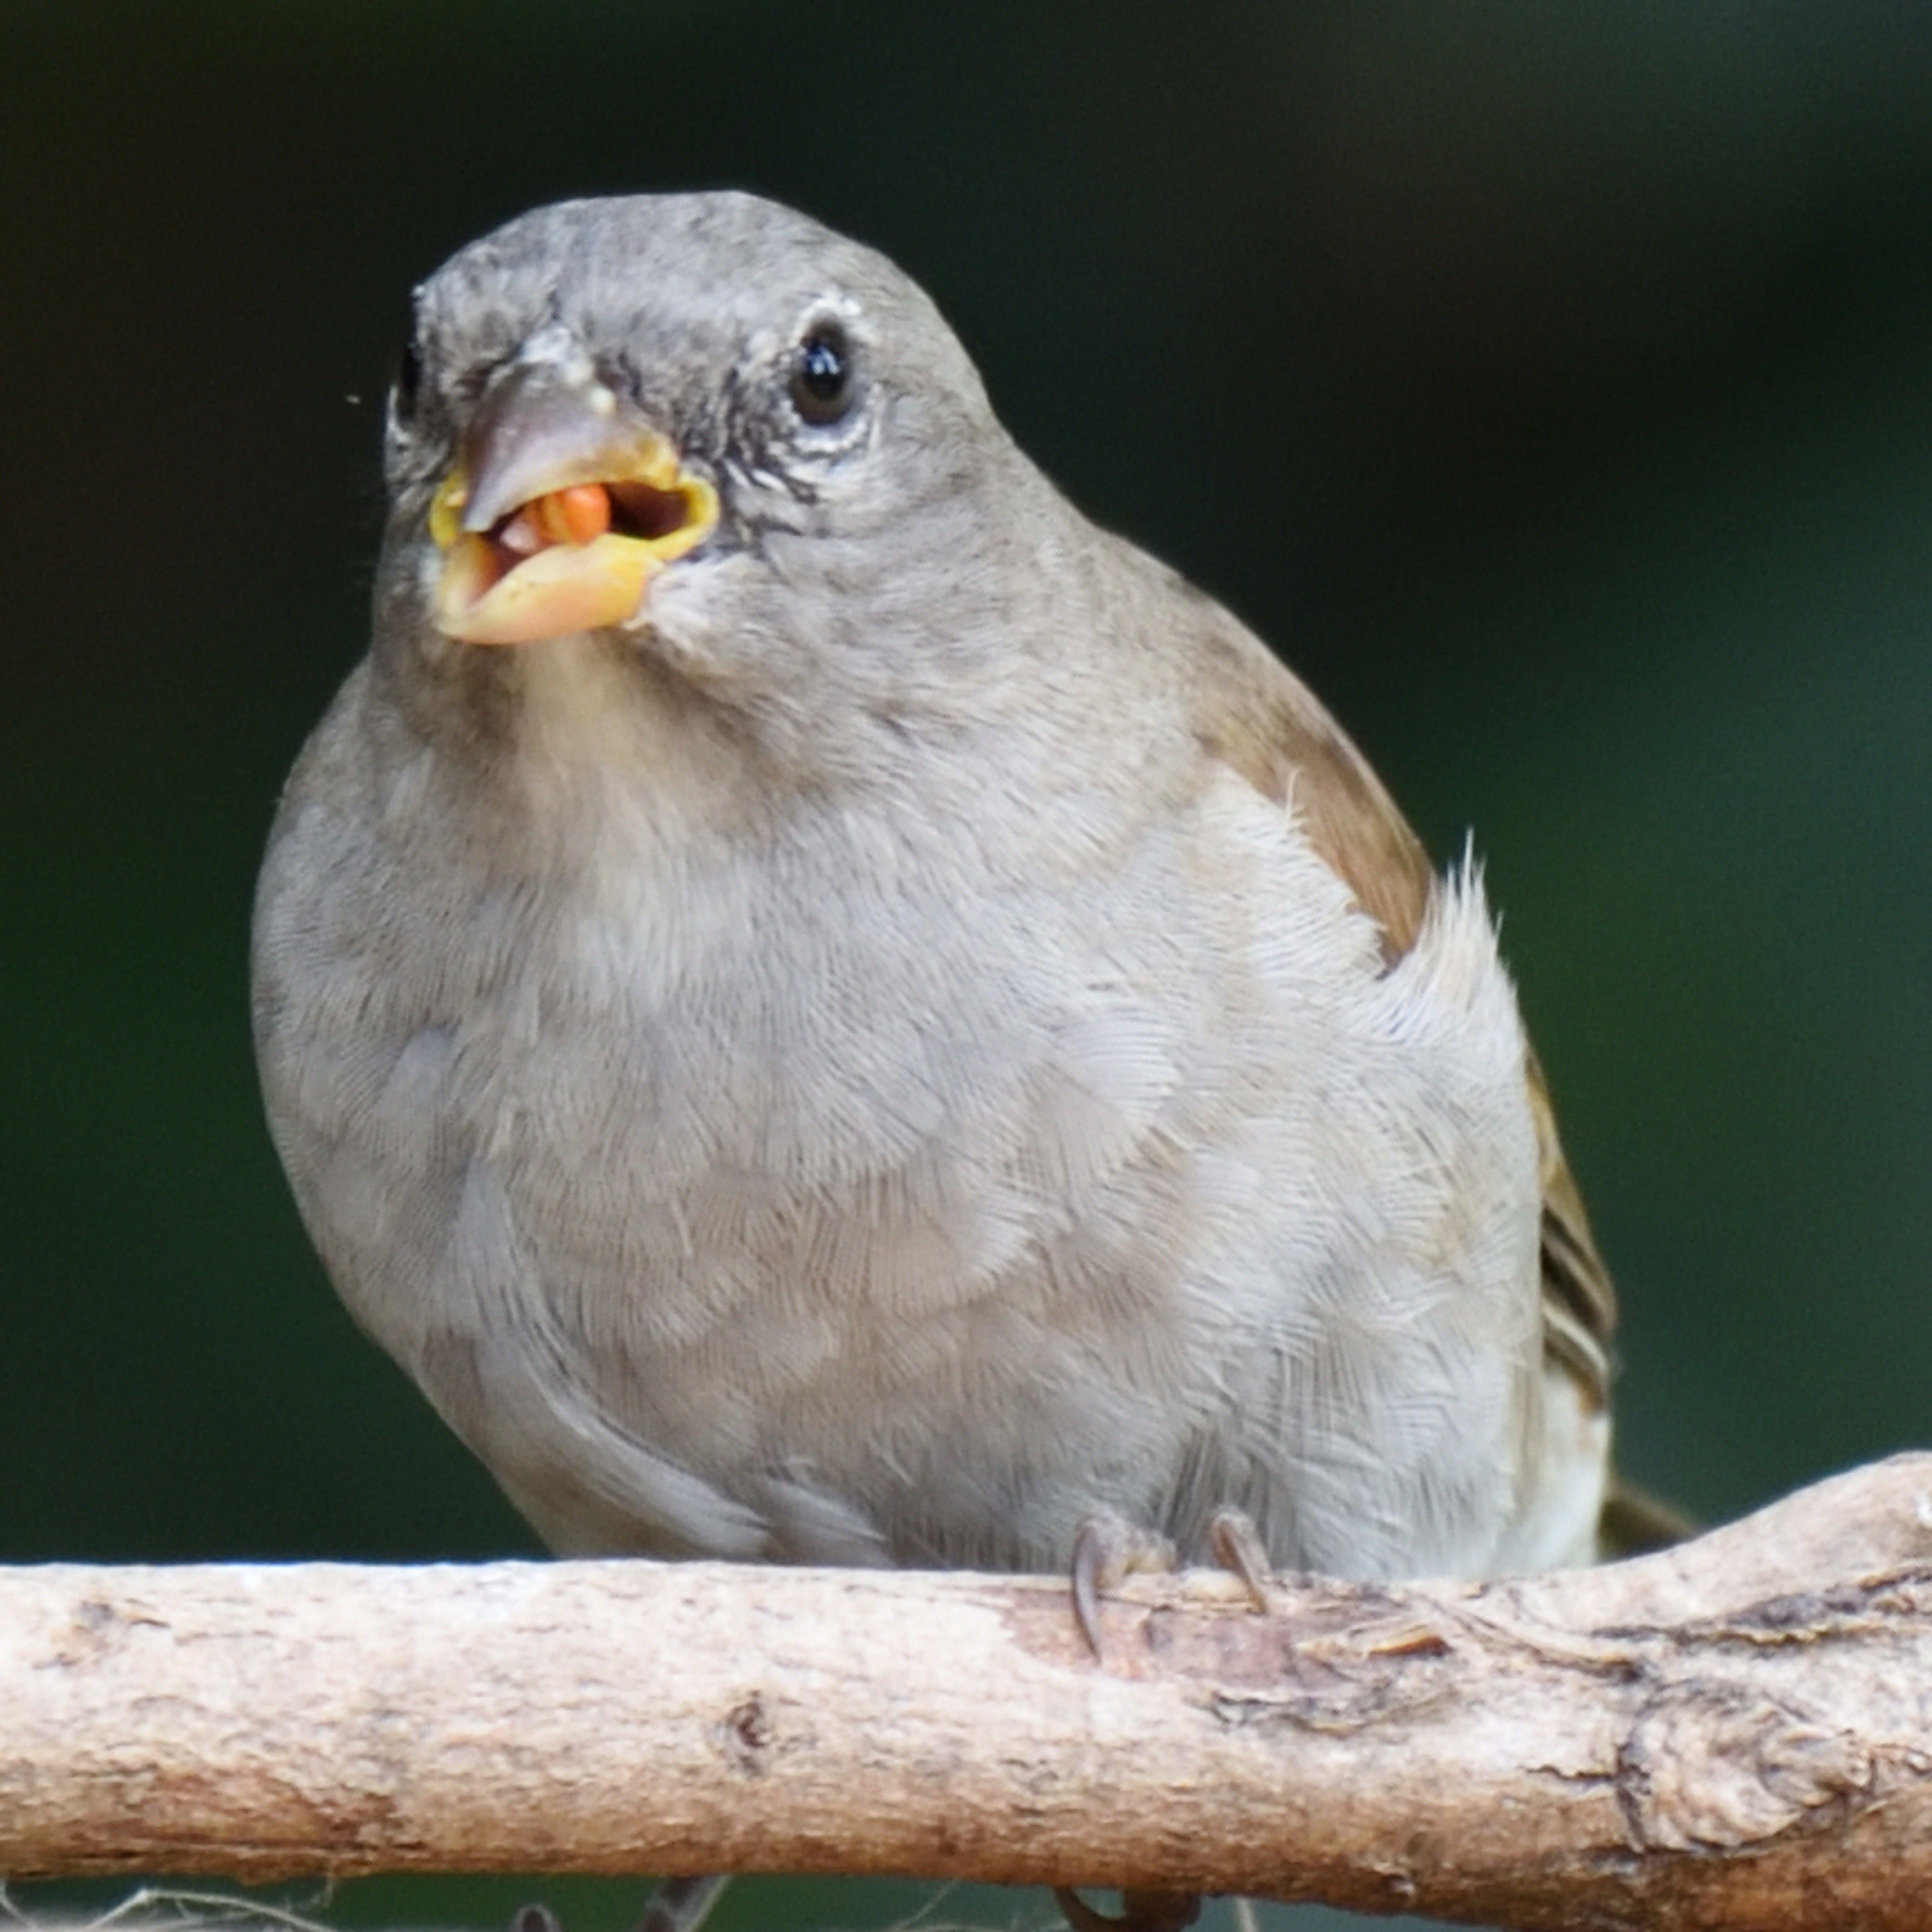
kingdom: Animalia
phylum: Chordata
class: Aves
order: Passeriformes
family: Passeridae
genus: Passer
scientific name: Passer diffusus
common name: Southern grey-headed sparrow
